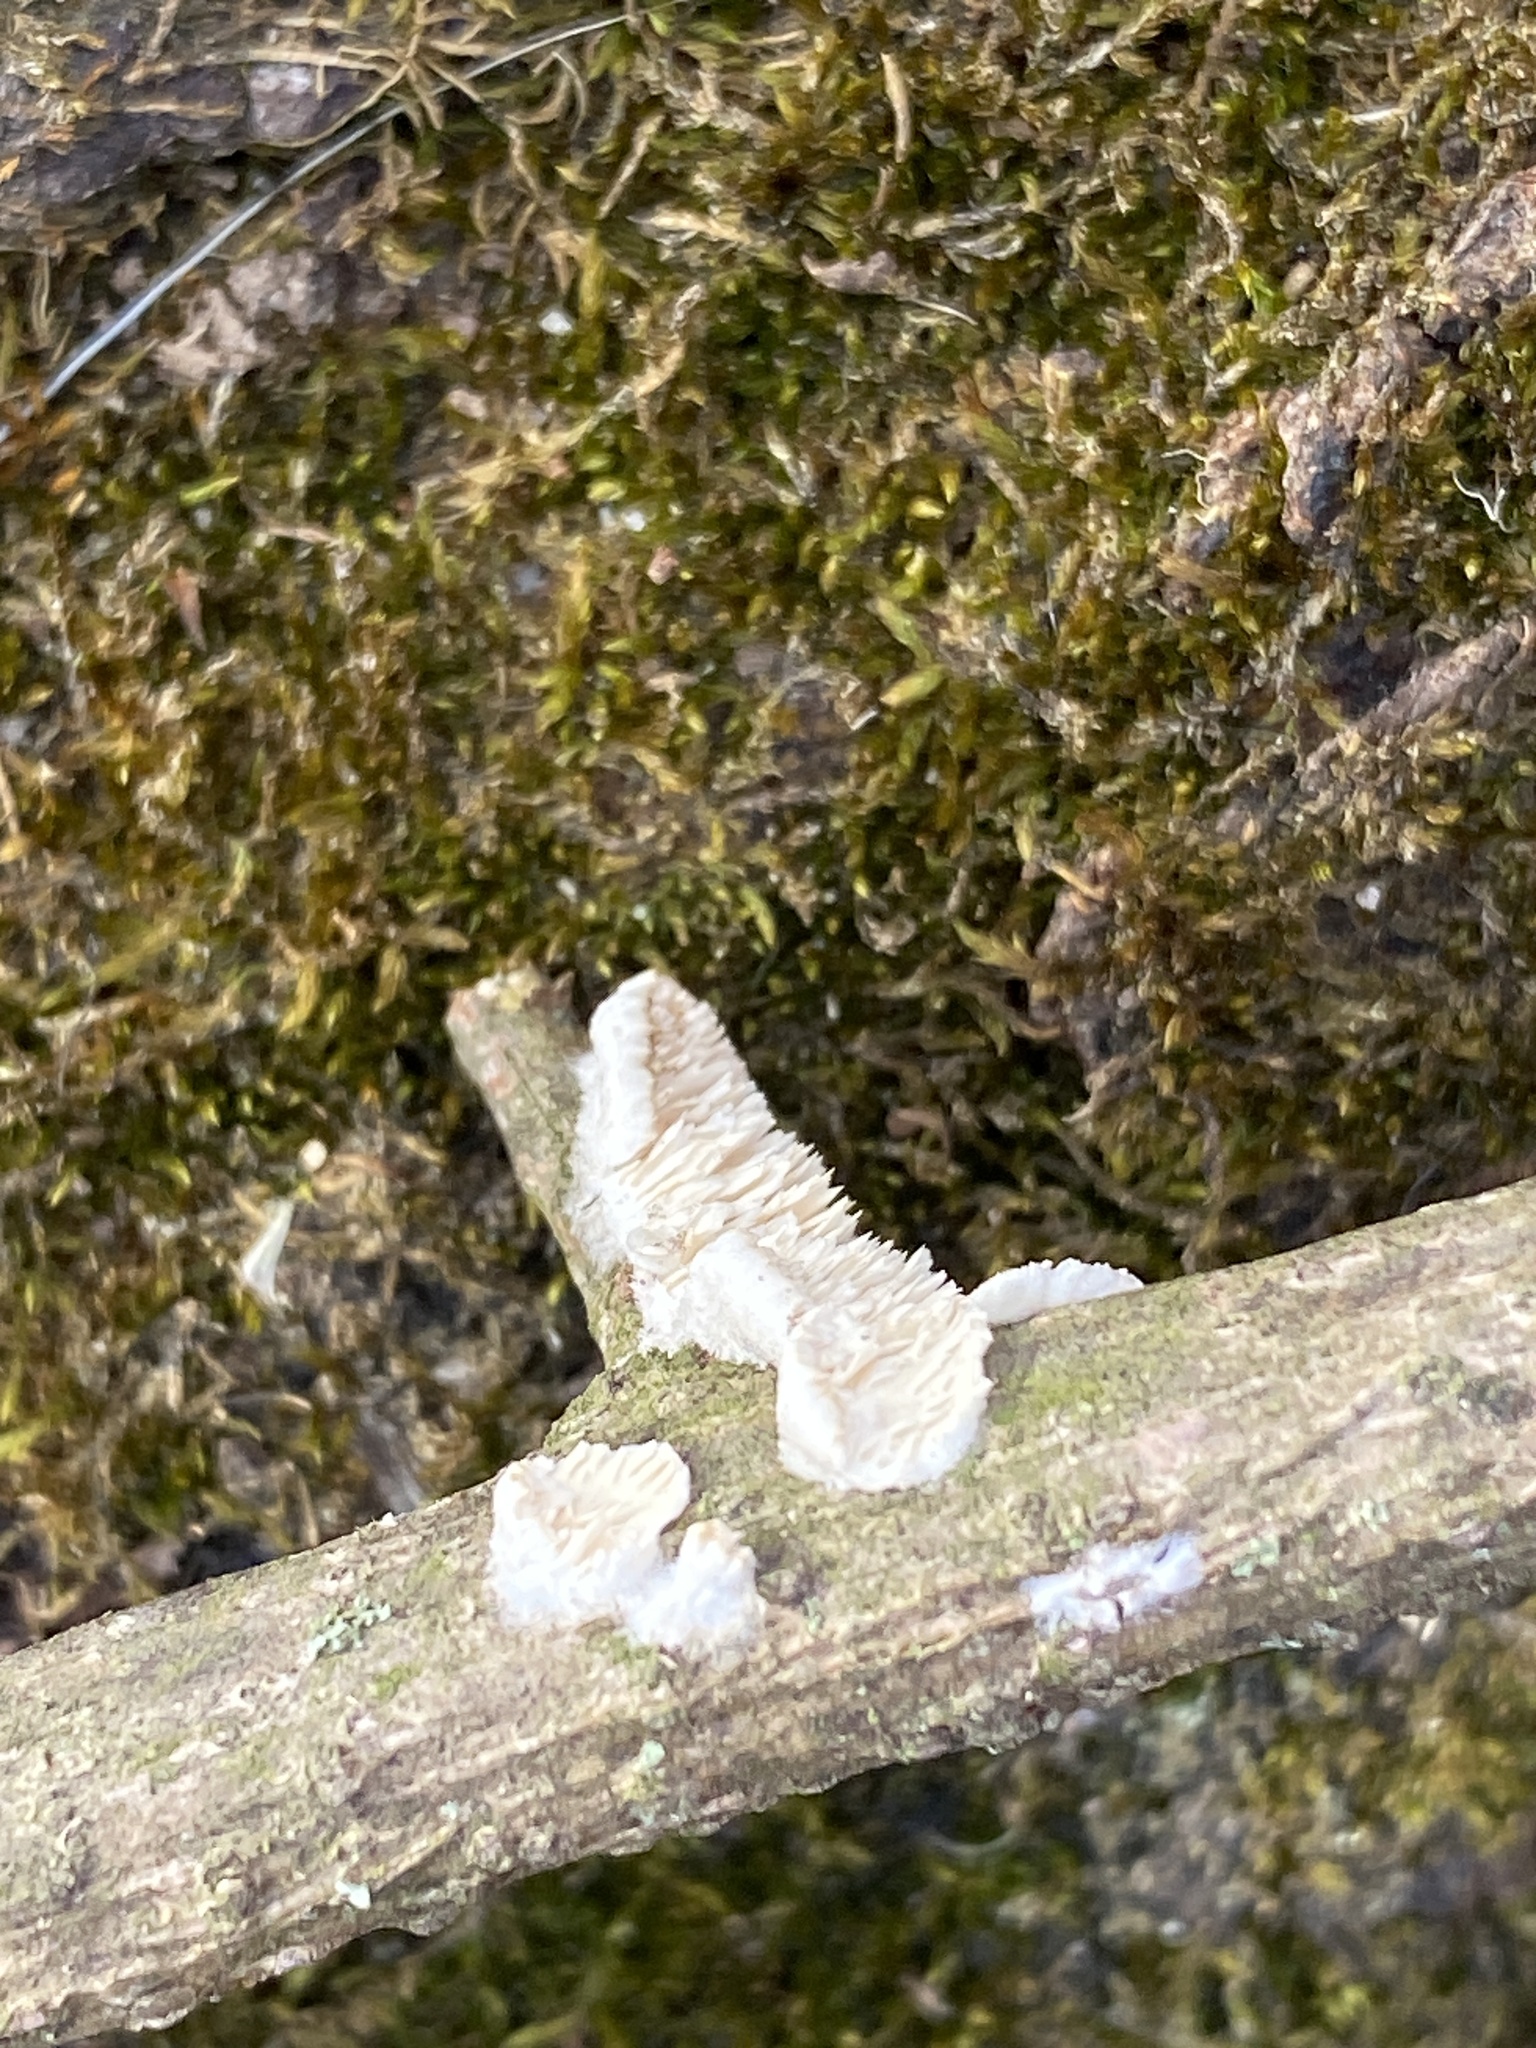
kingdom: Fungi
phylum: Basidiomycota
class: Agaricomycetes
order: Polyporales
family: Irpicaceae
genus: Irpex
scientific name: Irpex lacteus
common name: Milk-white toothed polypore
